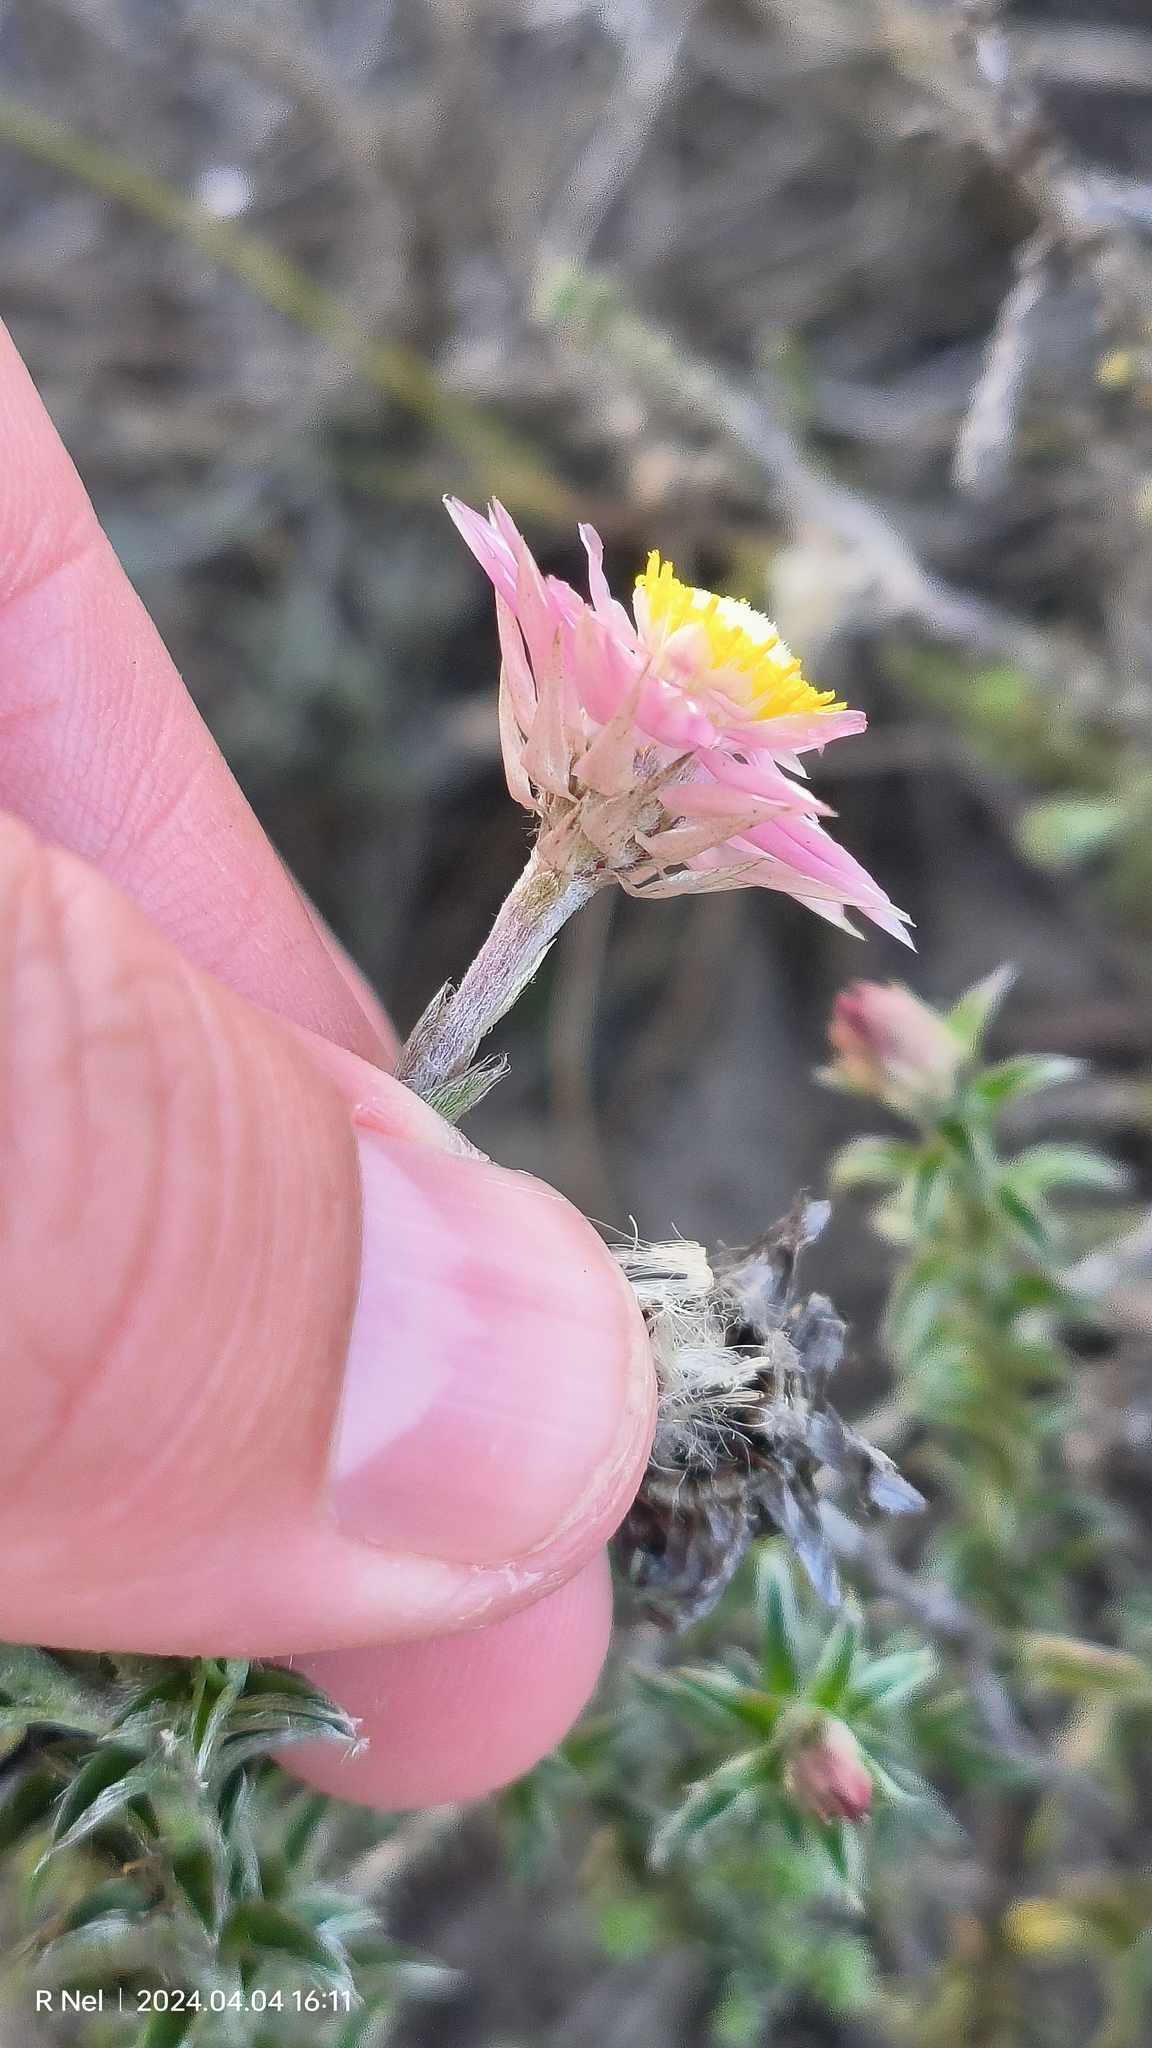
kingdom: Plantae
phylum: Tracheophyta
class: Magnoliopsida
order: Asterales
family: Asteraceae
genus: Achyranthemum
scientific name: Achyranthemum recurvatum
